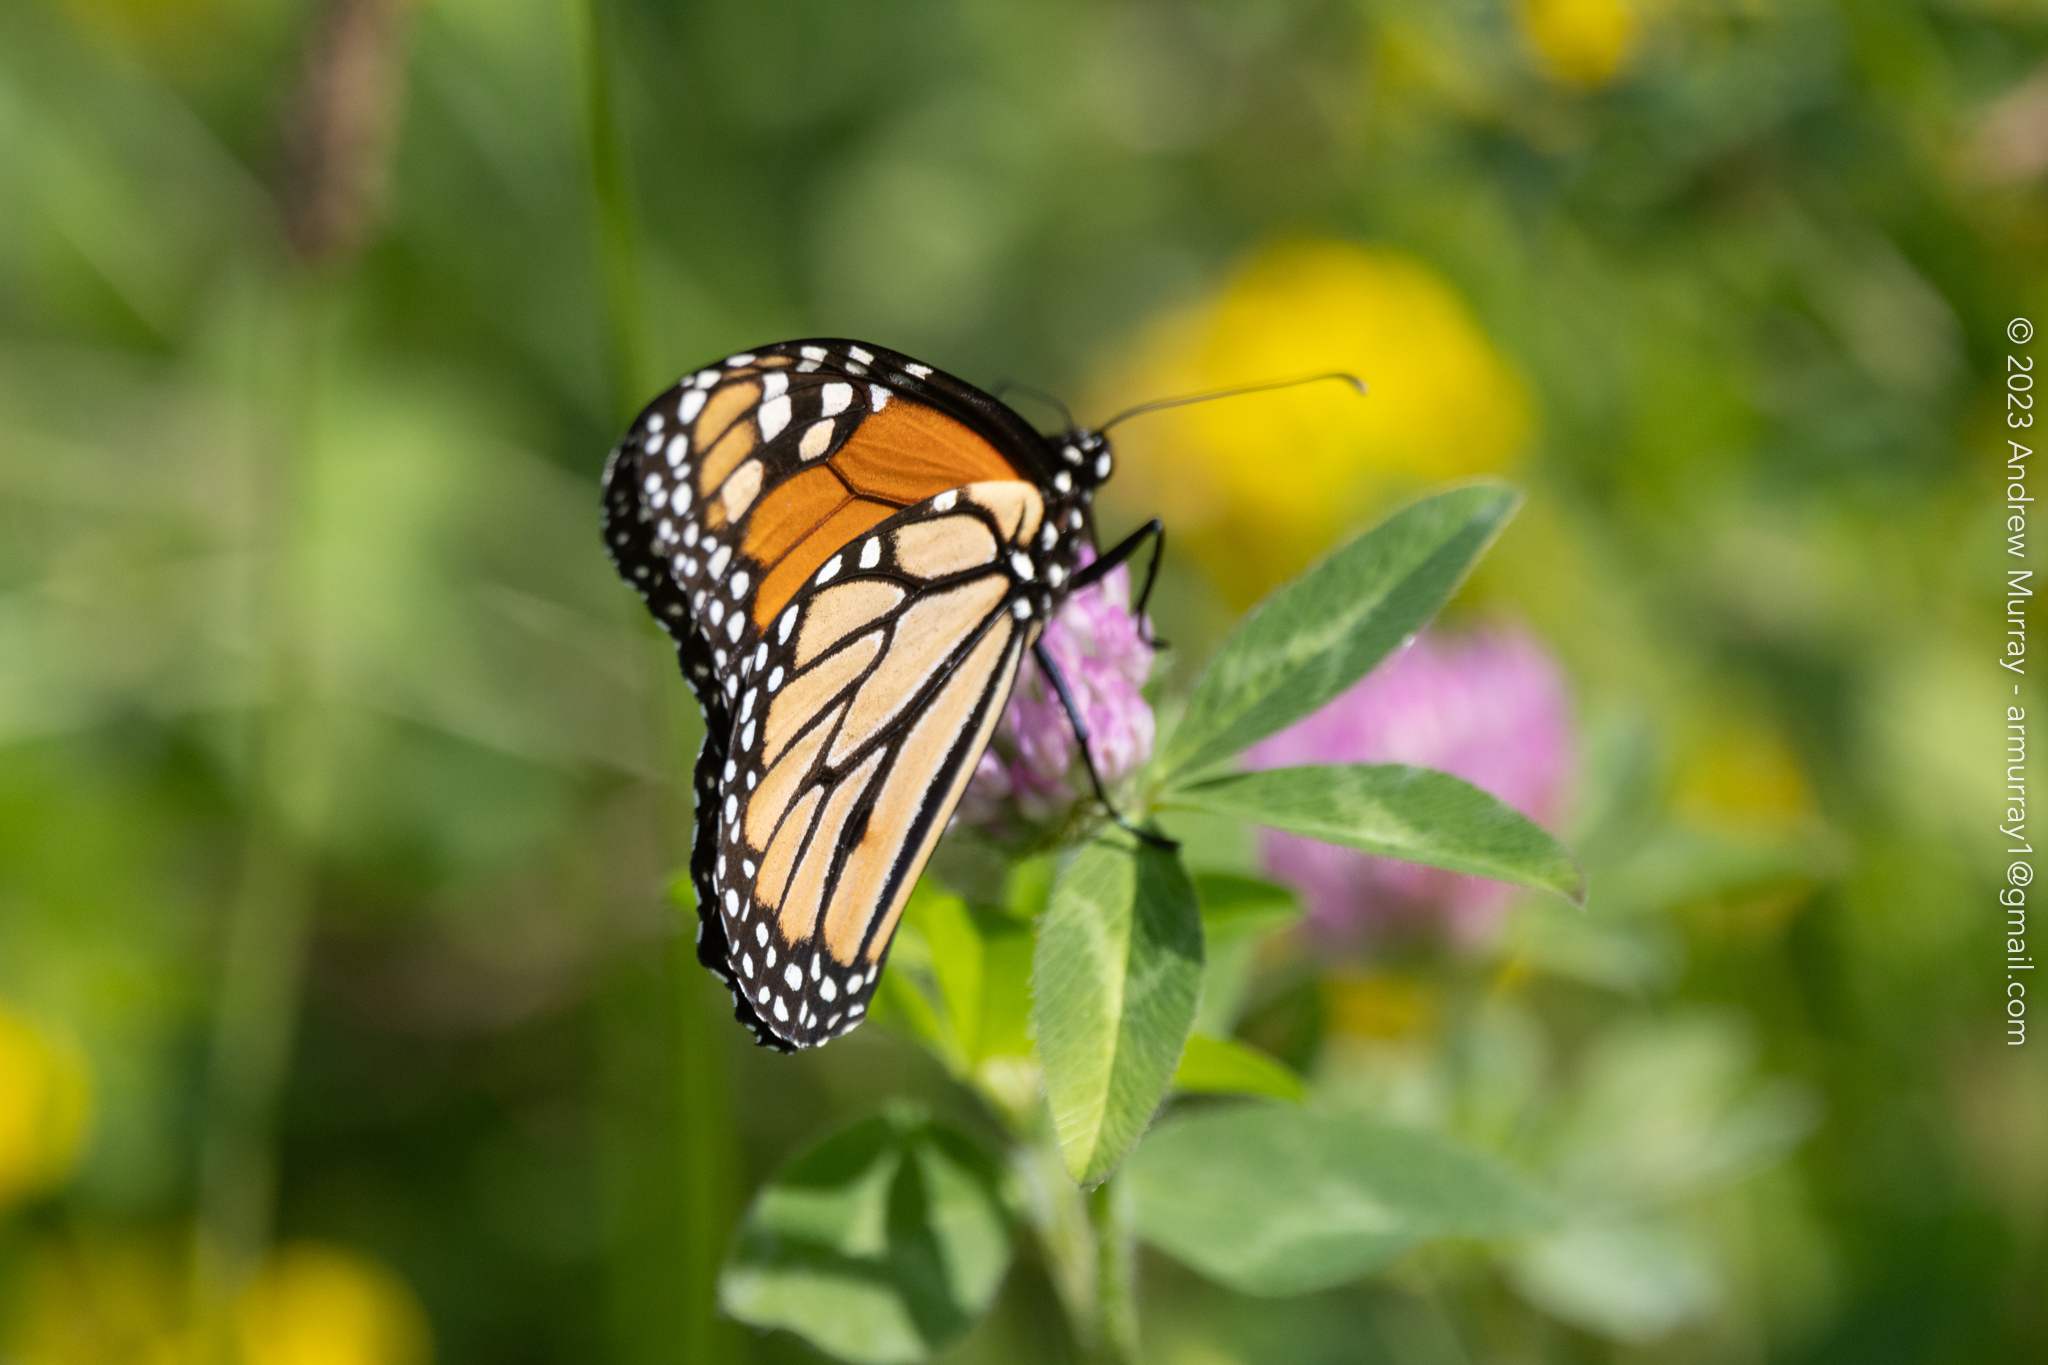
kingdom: Animalia
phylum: Arthropoda
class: Insecta
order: Lepidoptera
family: Nymphalidae
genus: Danaus
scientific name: Danaus plexippus
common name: Monarch
